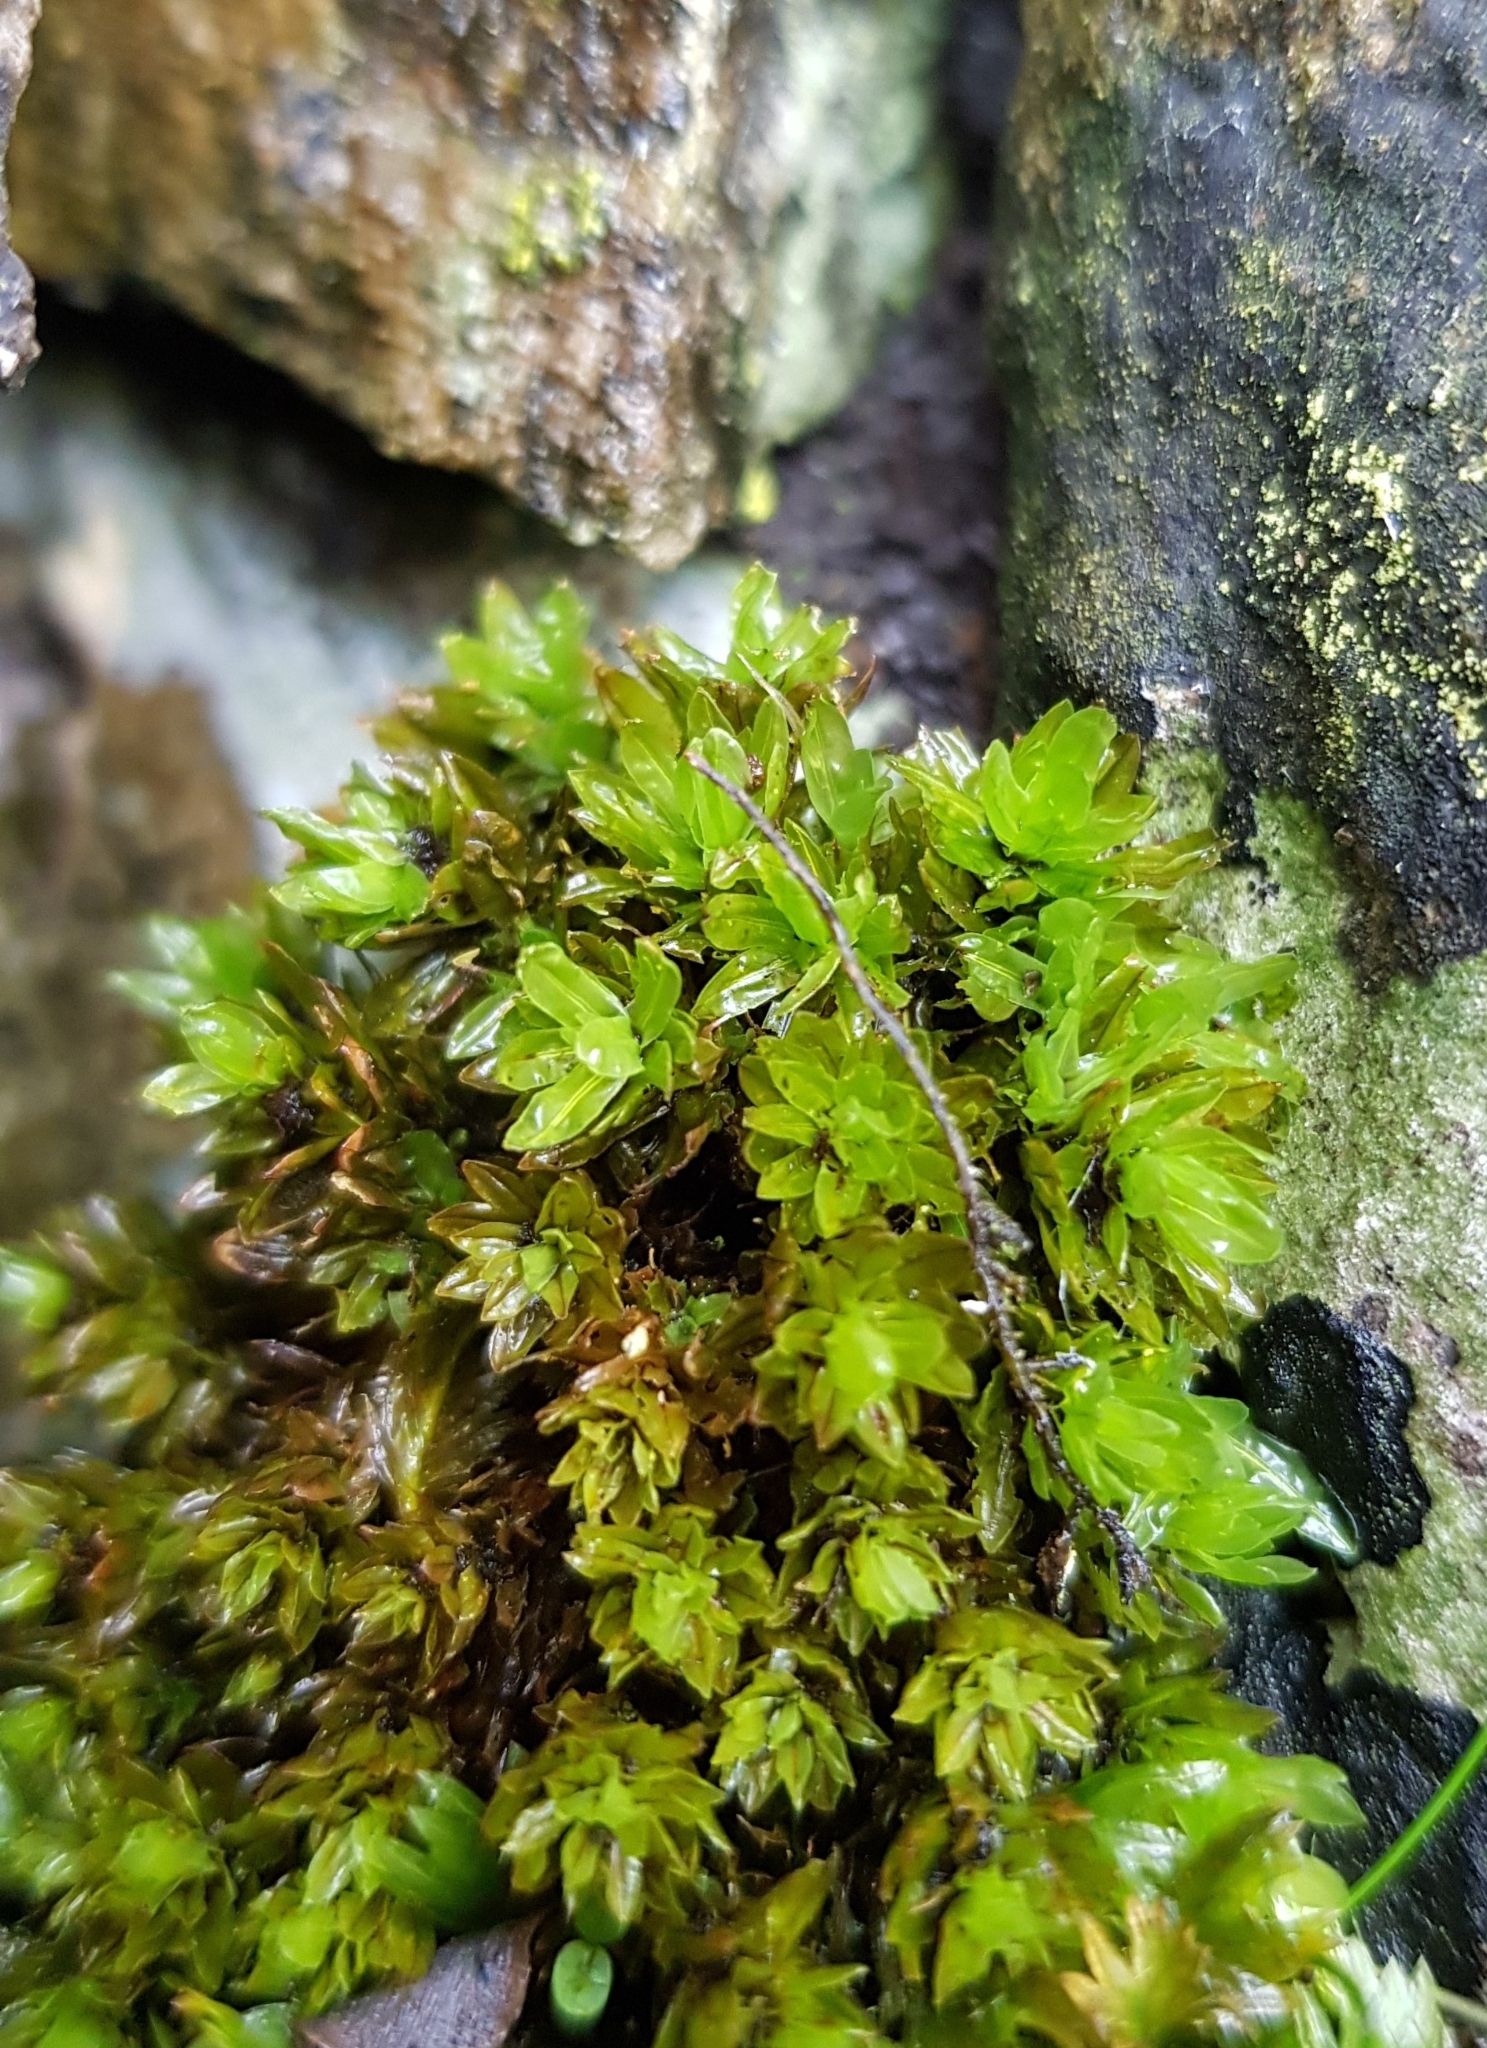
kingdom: Plantae
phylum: Bryophyta
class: Bryopsida
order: Encalyptales
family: Encalyptaceae
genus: Encalypta
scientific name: Encalypta streptocarpa
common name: Spiral extinguisher-moss
